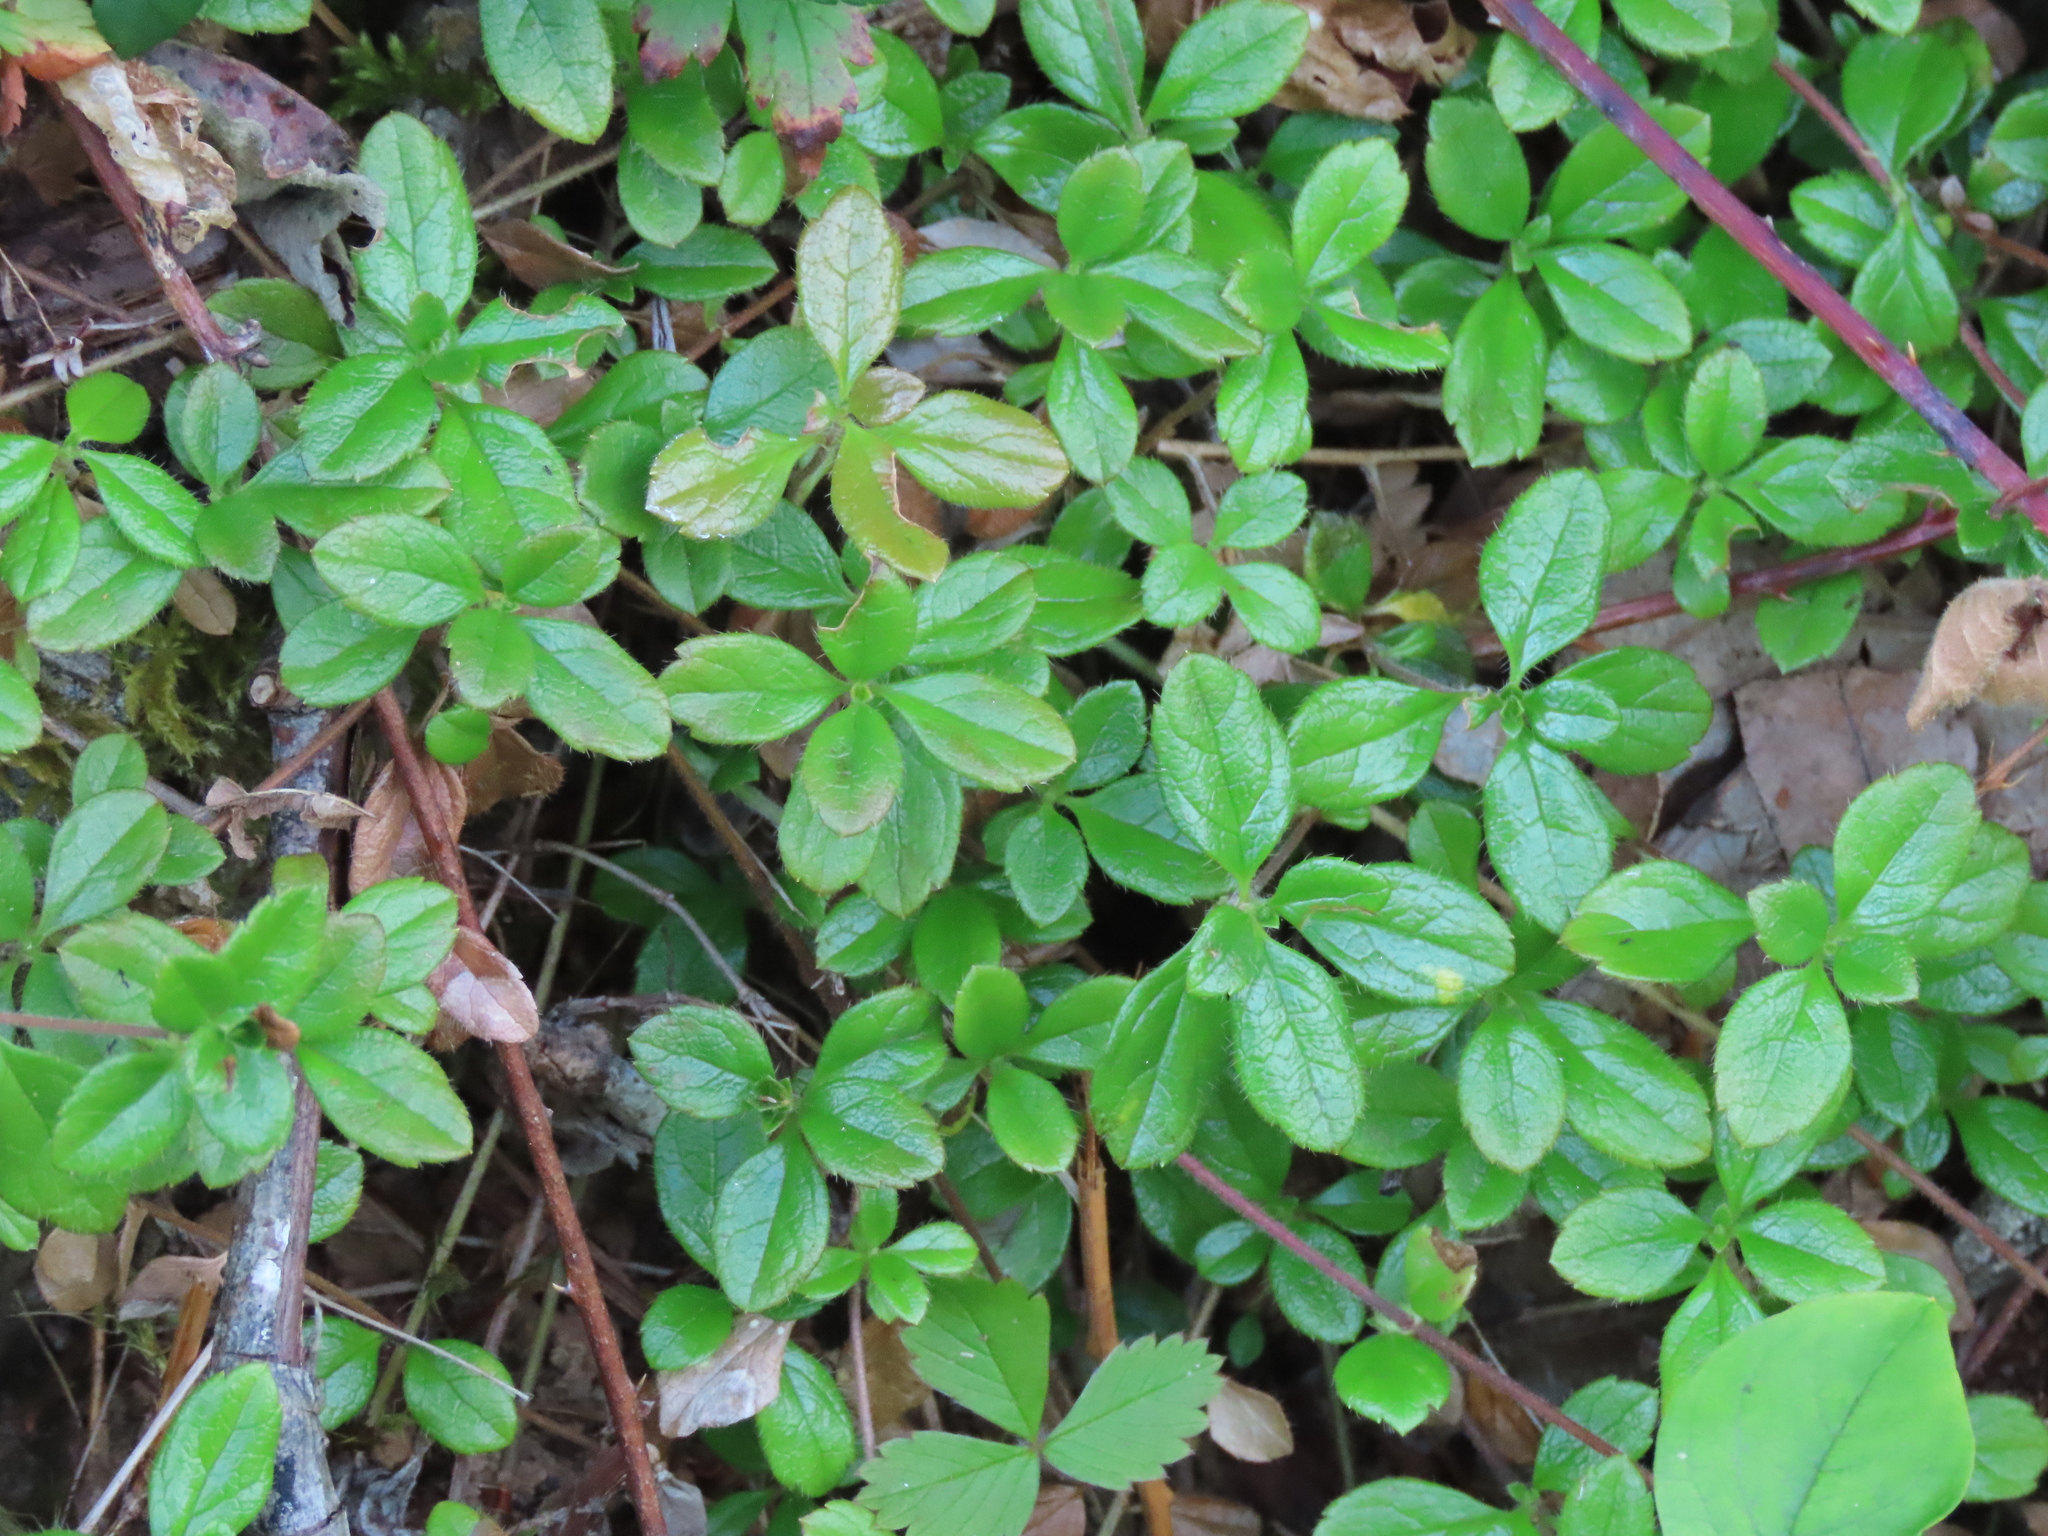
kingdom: Plantae
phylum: Tracheophyta
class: Magnoliopsida
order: Dipsacales
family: Caprifoliaceae
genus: Linnaea
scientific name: Linnaea borealis
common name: Twinflower
